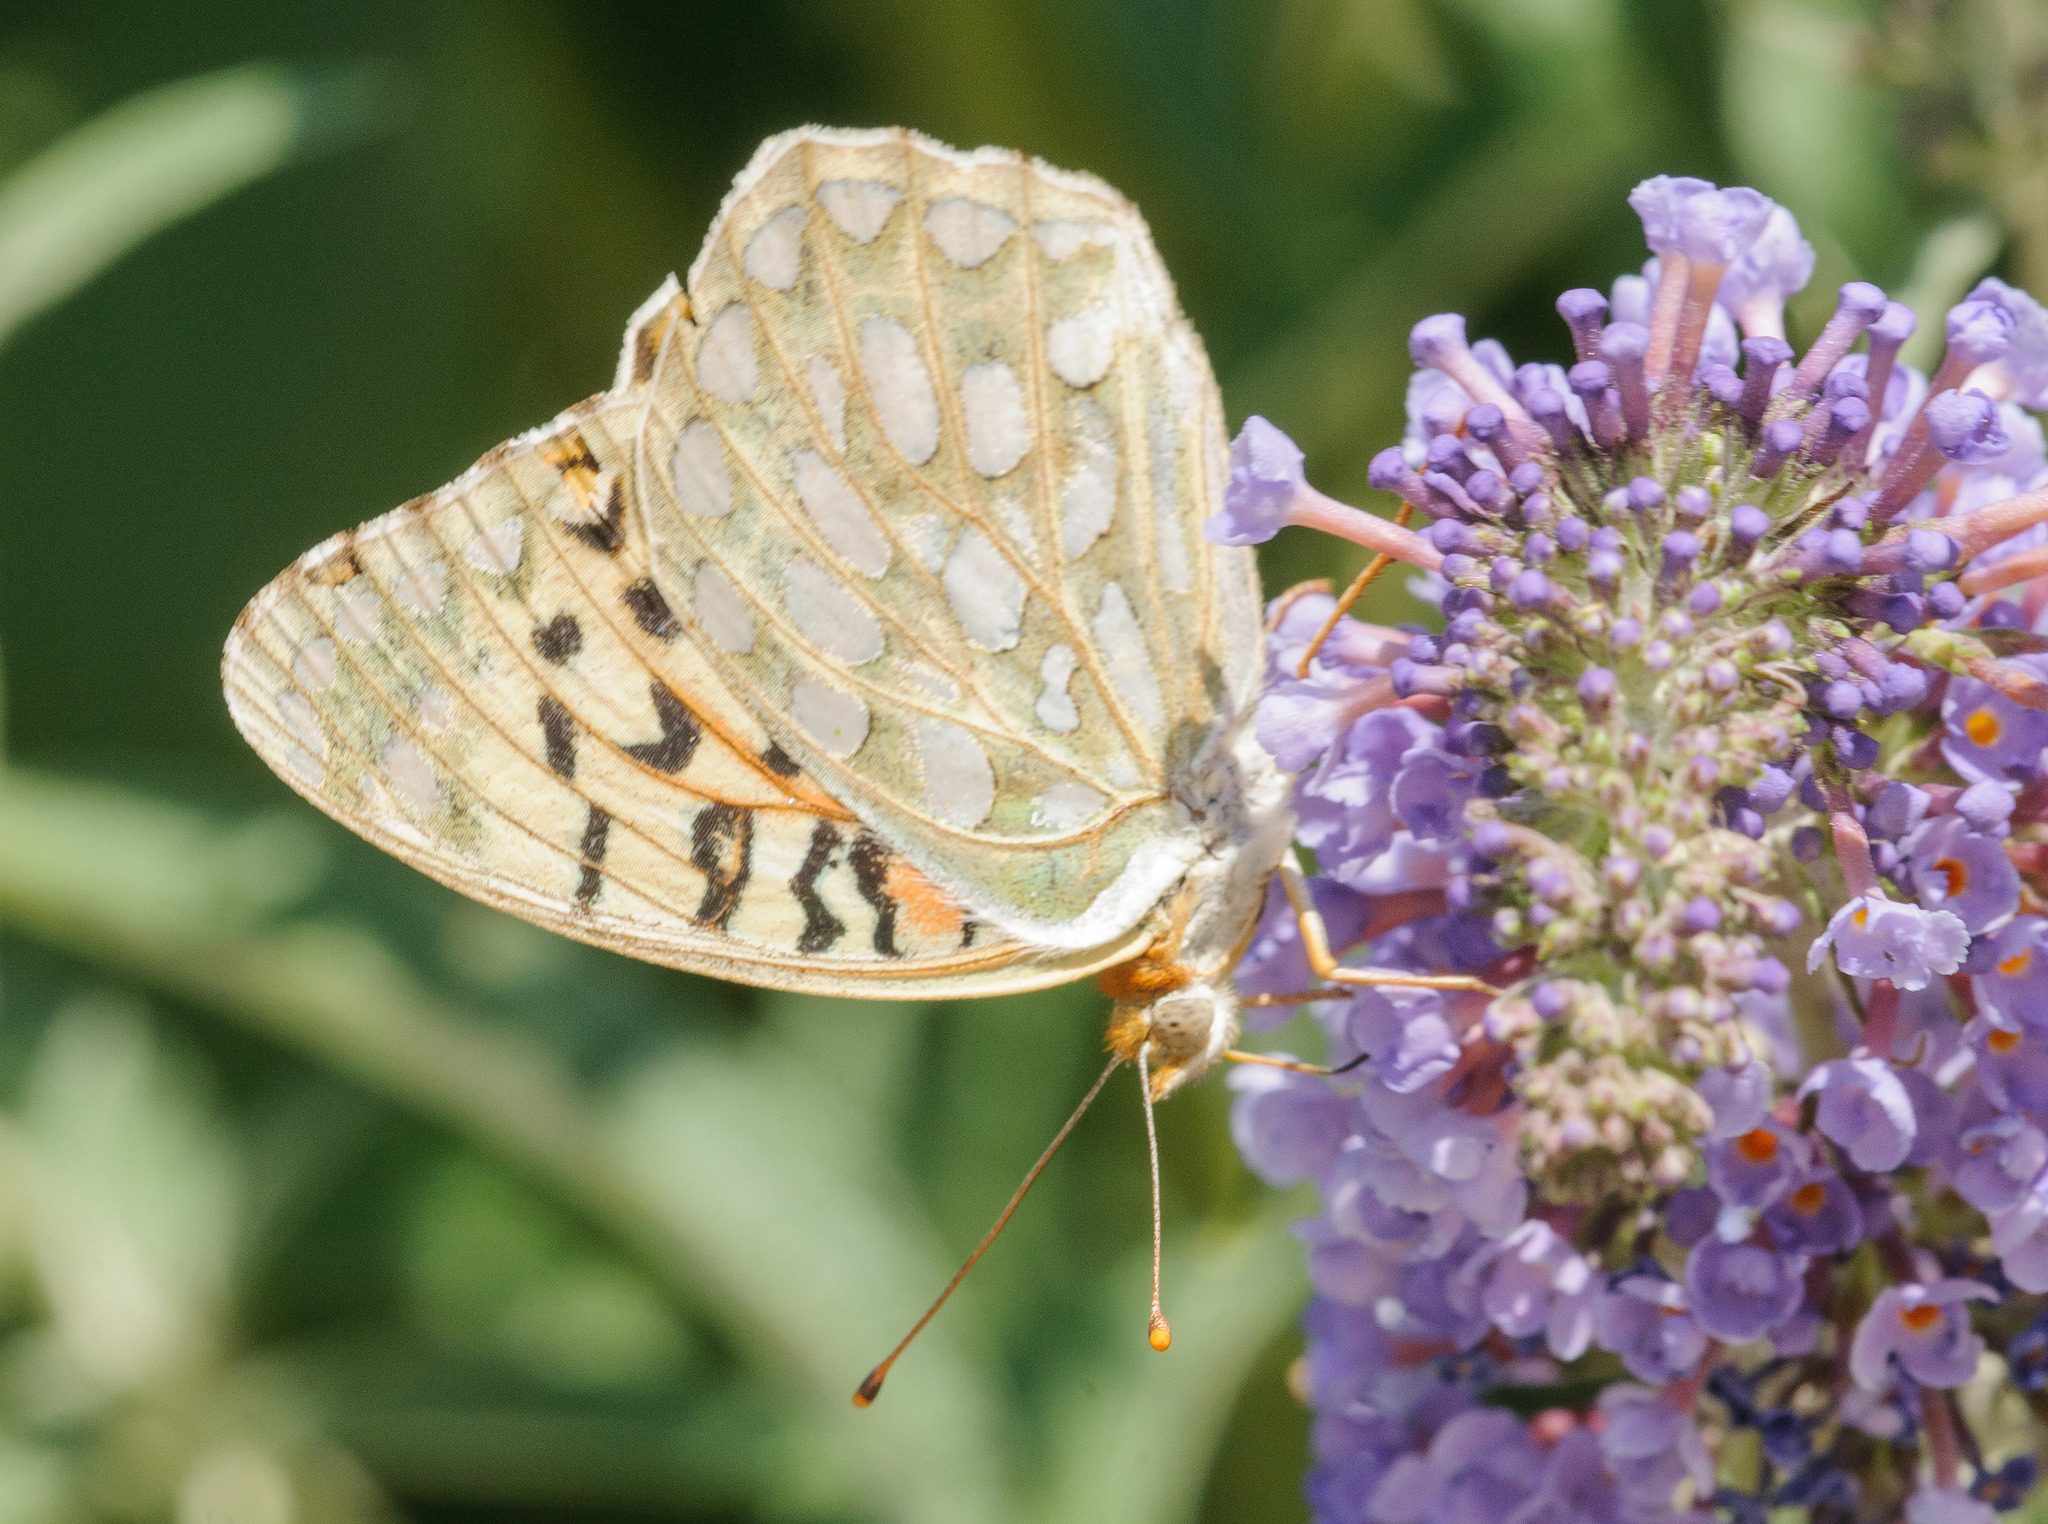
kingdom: Animalia
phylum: Arthropoda
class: Insecta
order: Lepidoptera
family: Nymphalidae
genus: Speyeria
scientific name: Speyeria callippe
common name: Callippe fritillary
